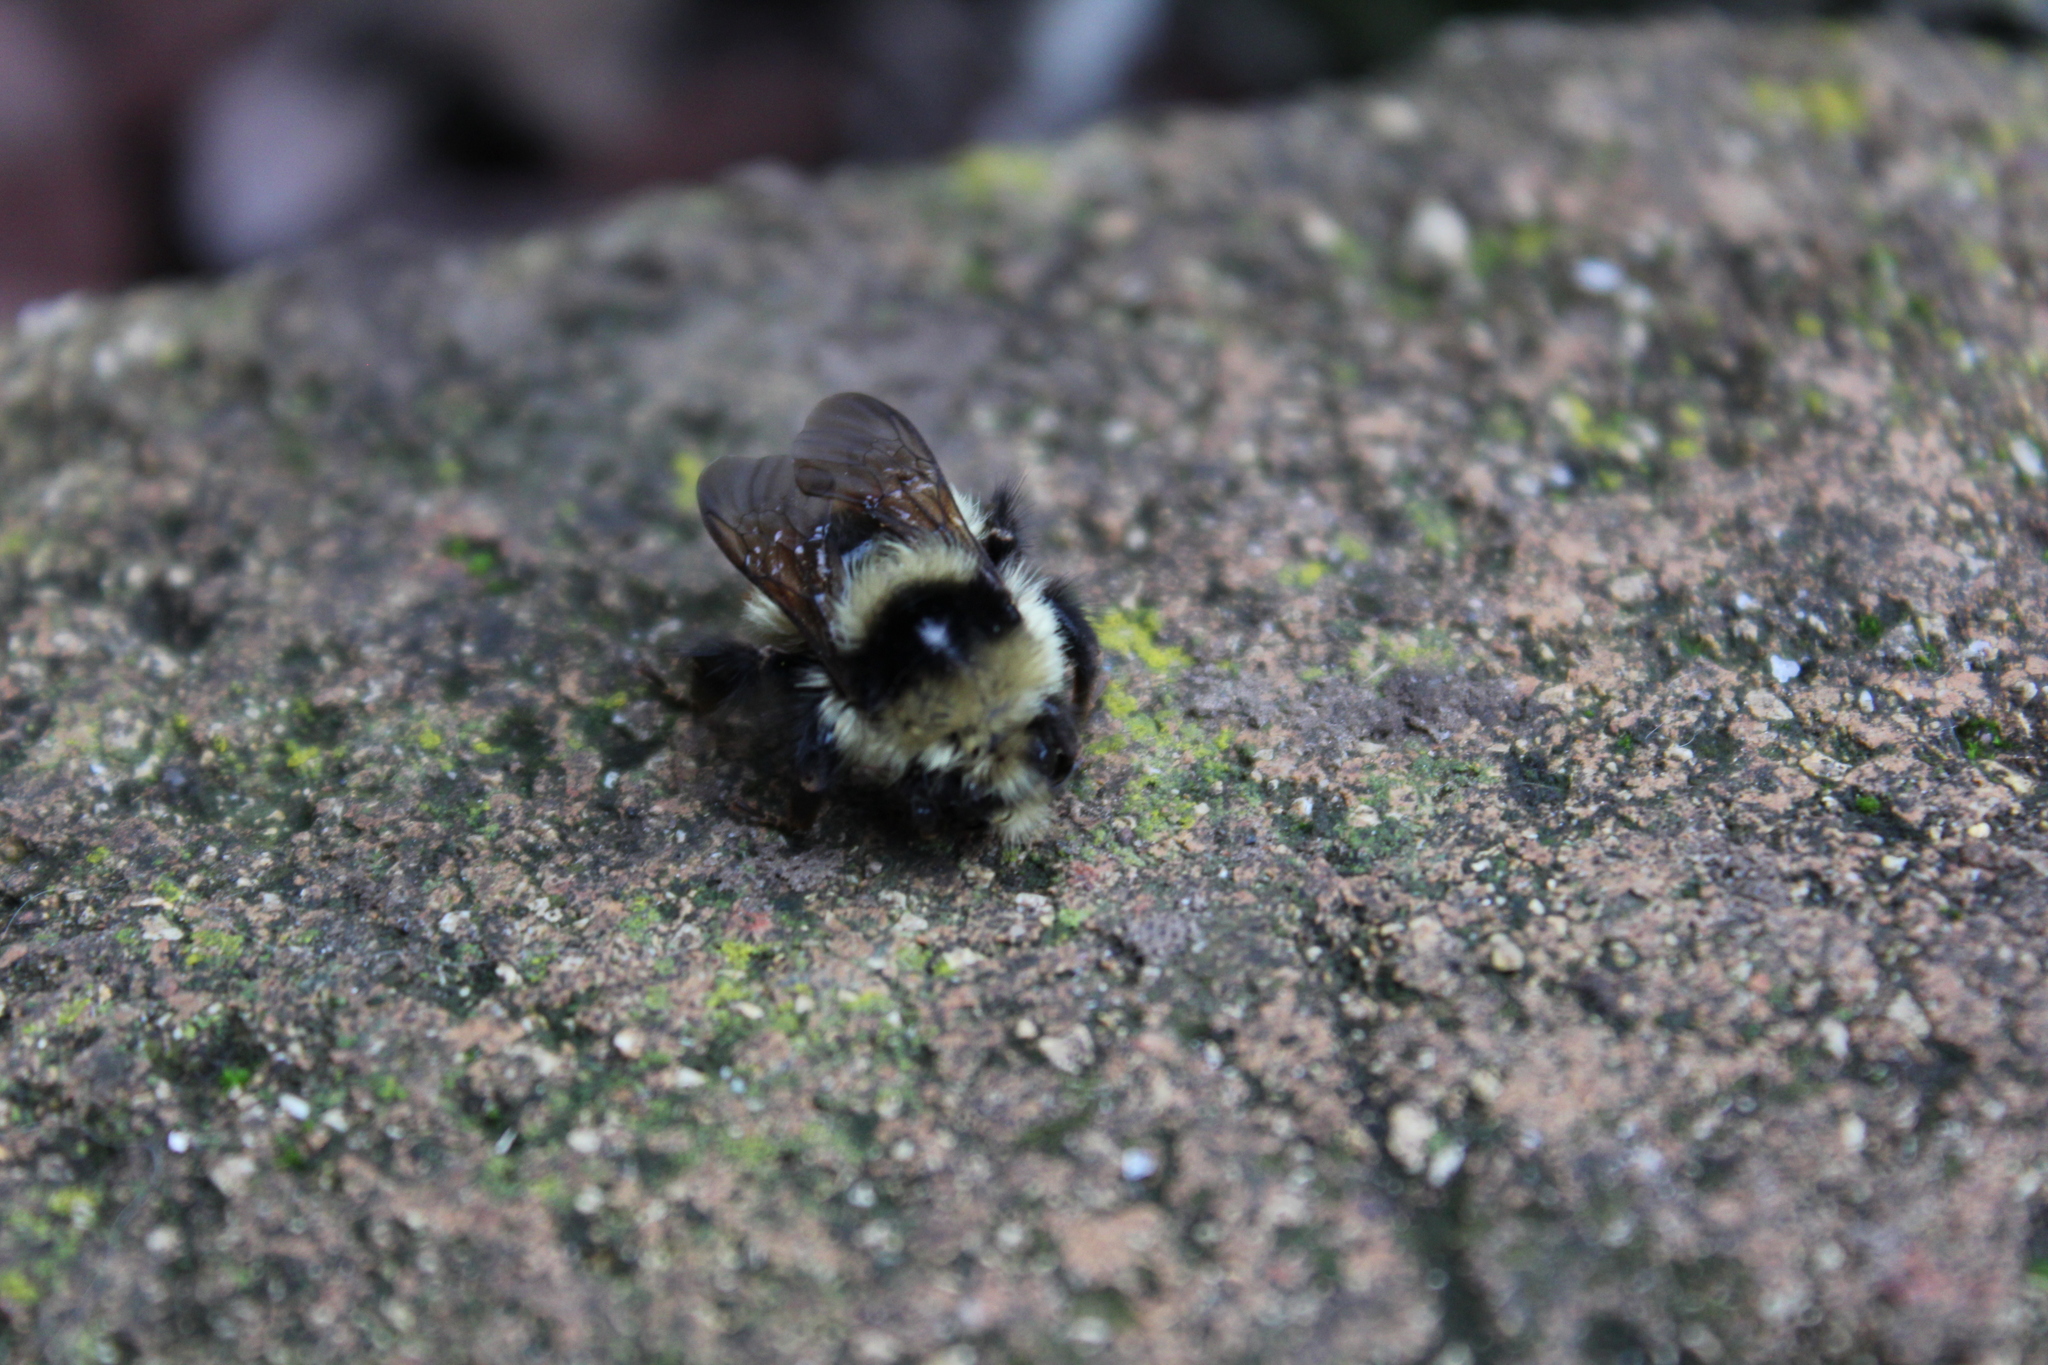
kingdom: Animalia
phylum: Arthropoda
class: Insecta
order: Hymenoptera
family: Apidae
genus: Bombus
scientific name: Bombus centralis
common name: Central bumble bee
